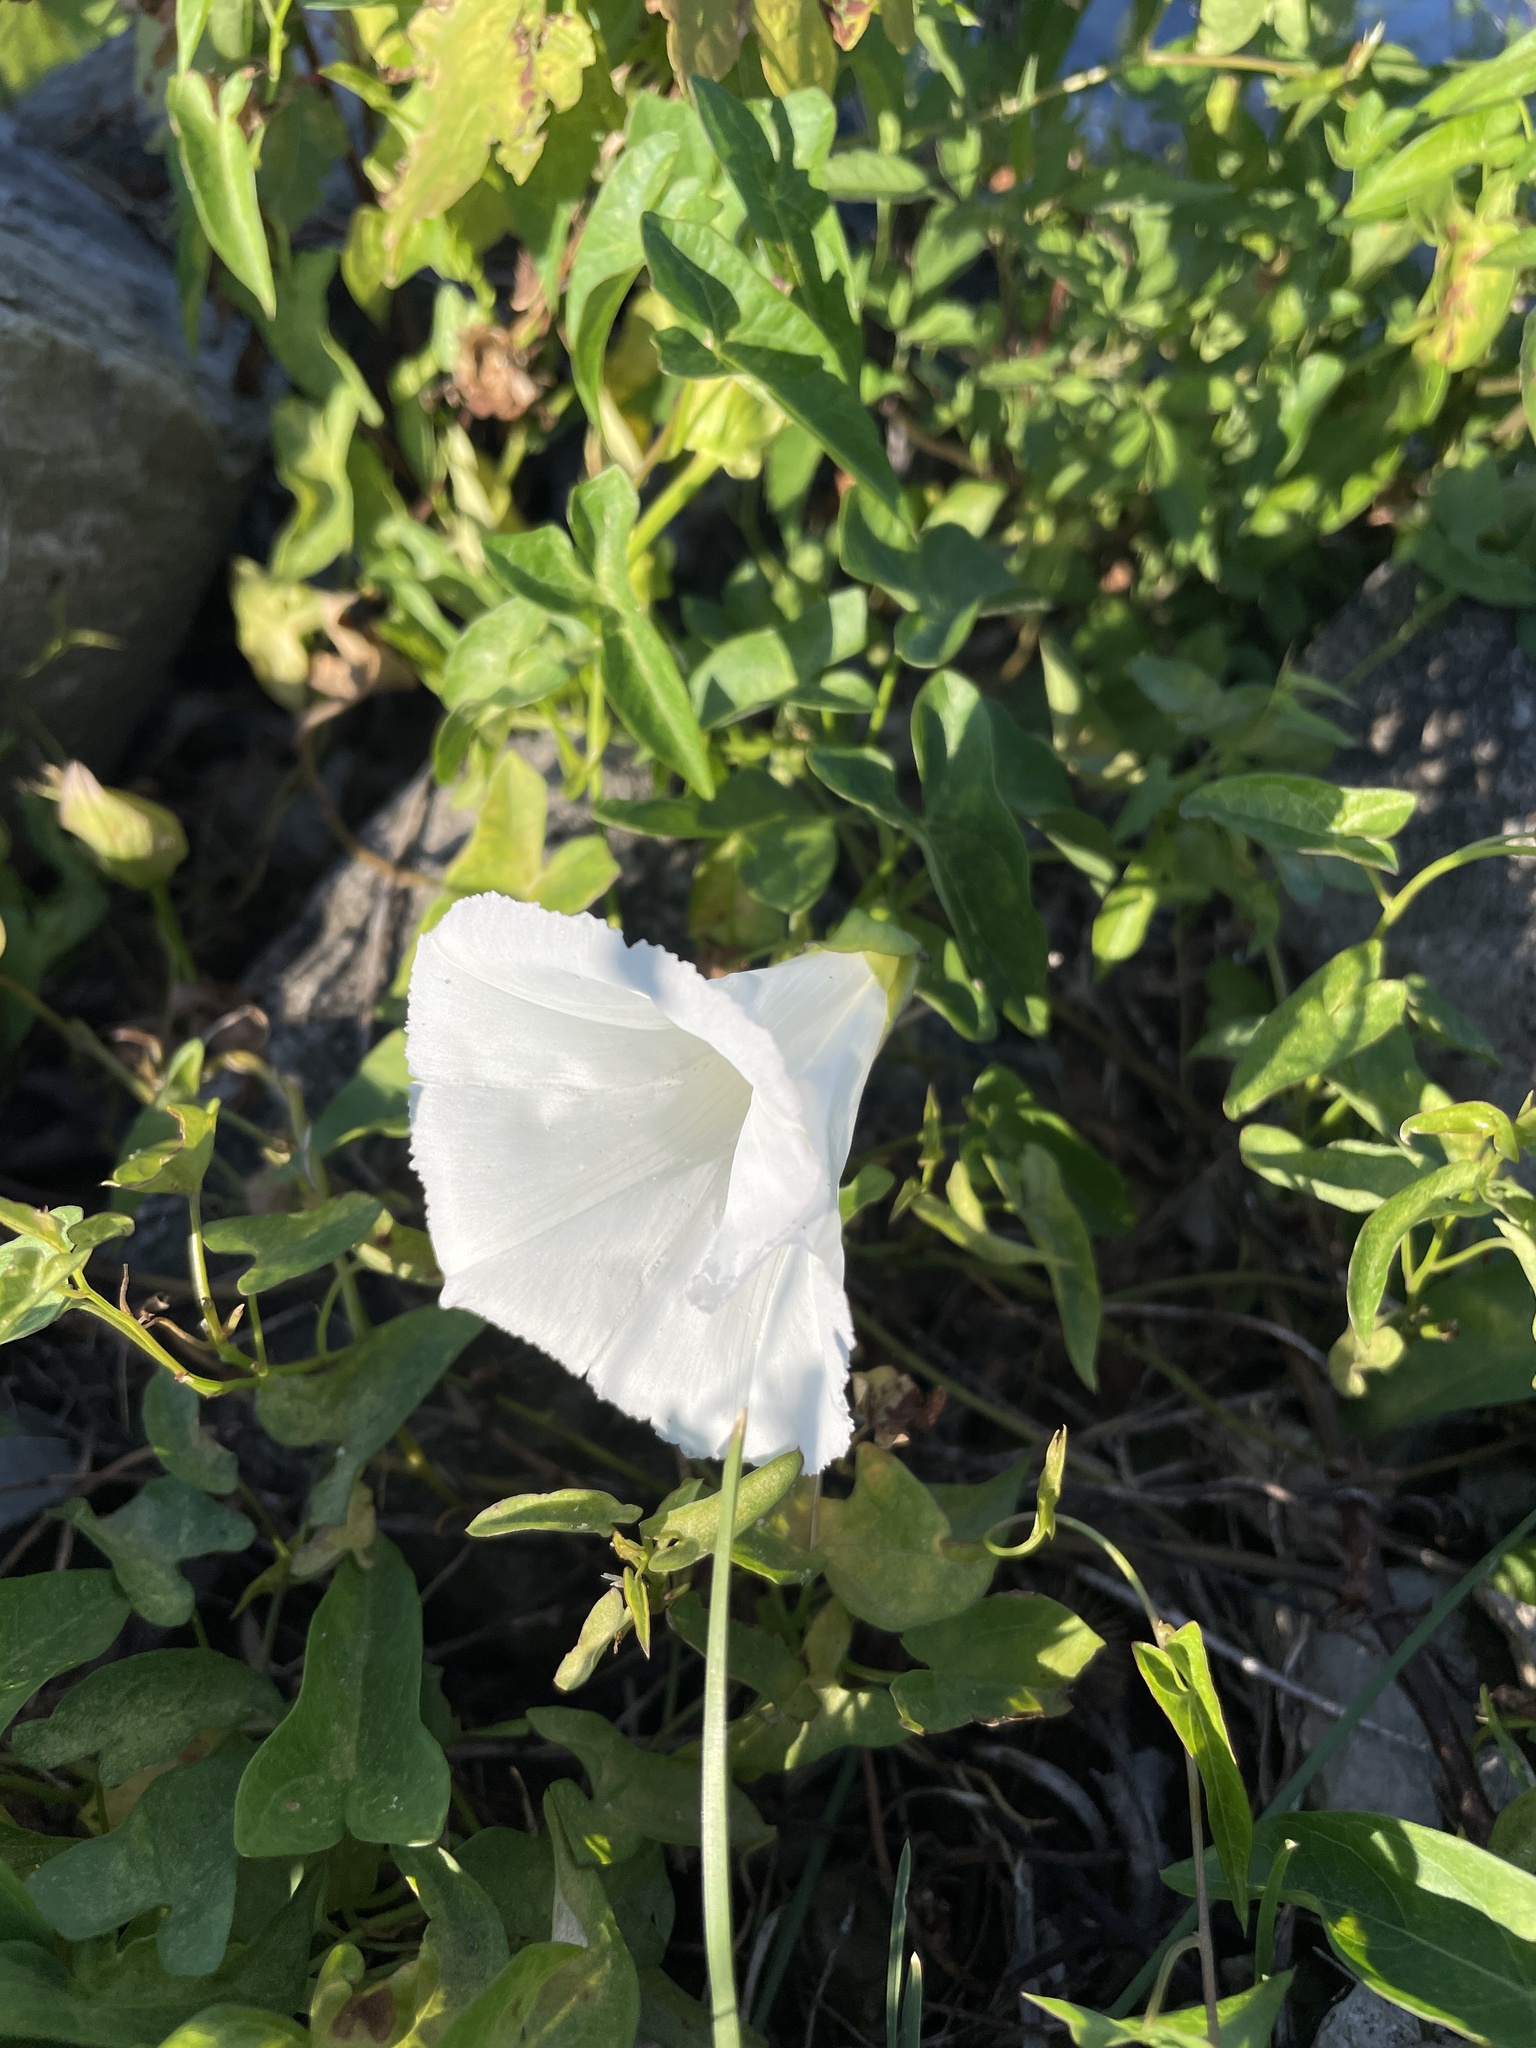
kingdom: Plantae
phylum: Tracheophyta
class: Magnoliopsida
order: Solanales
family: Convolvulaceae
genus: Calystegia
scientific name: Calystegia sepium
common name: Hedge bindweed
